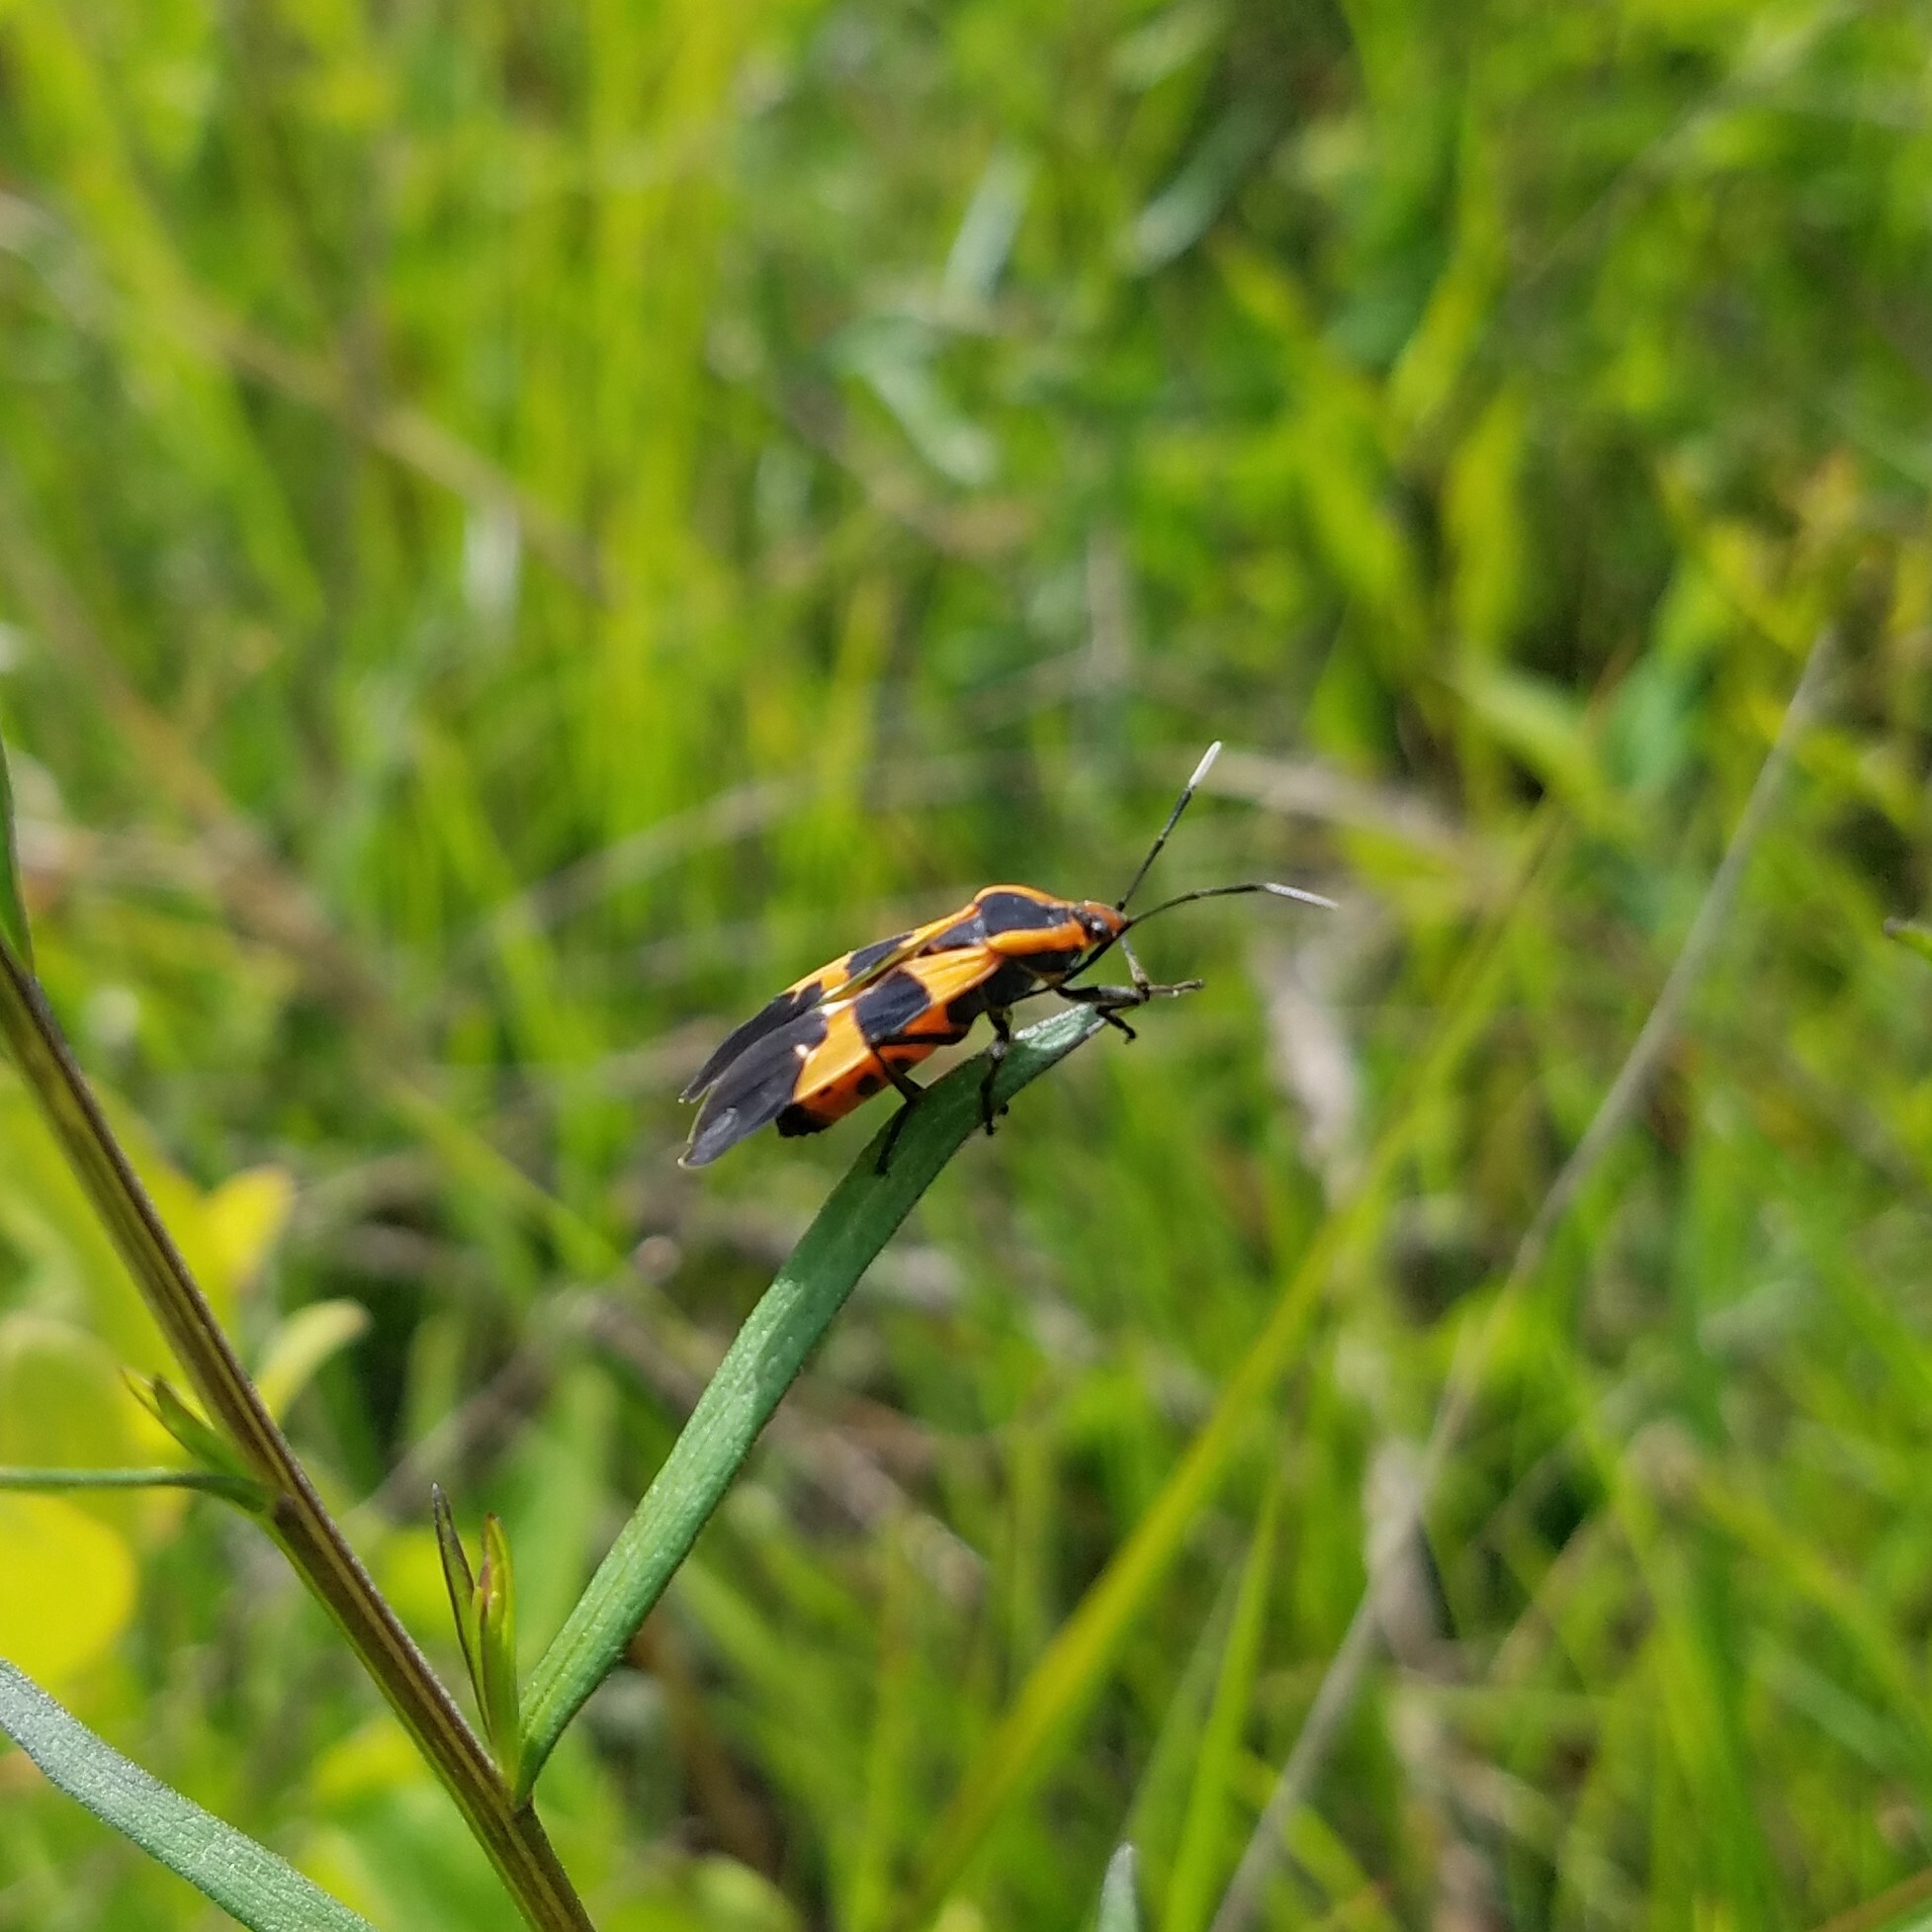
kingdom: Animalia
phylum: Arthropoda
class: Insecta
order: Hemiptera
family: Lygaeidae
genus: Oncopeltus
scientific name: Oncopeltus fasciatus
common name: Large milkweed bug
